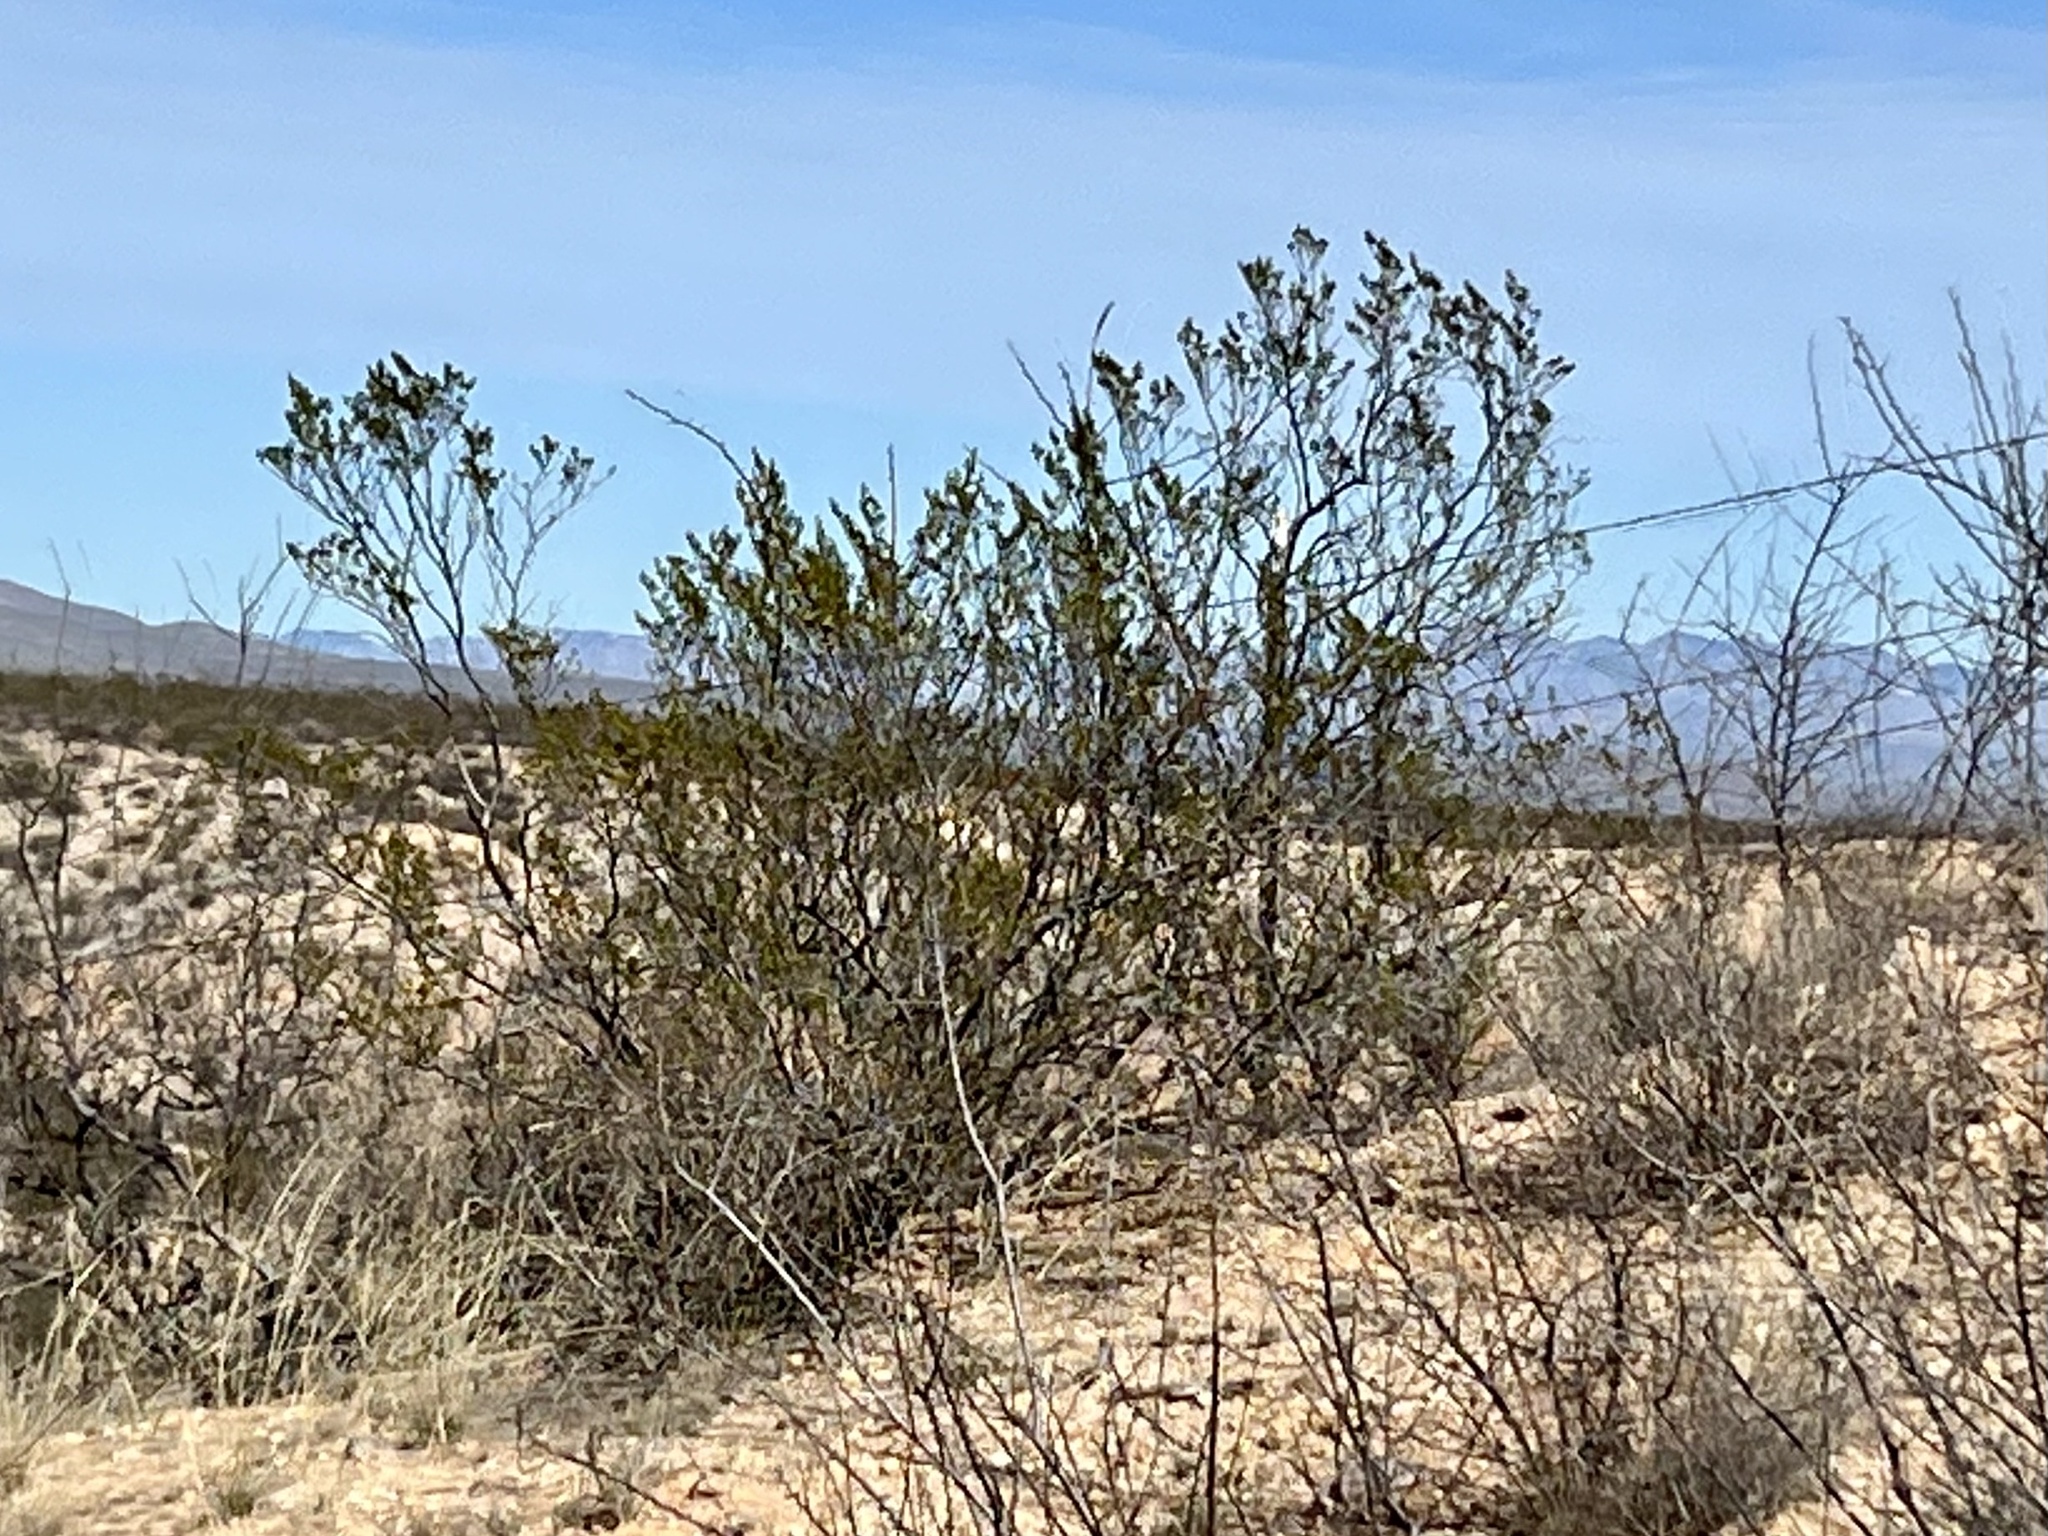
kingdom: Plantae
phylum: Tracheophyta
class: Magnoliopsida
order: Zygophyllales
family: Zygophyllaceae
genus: Larrea
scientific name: Larrea tridentata
